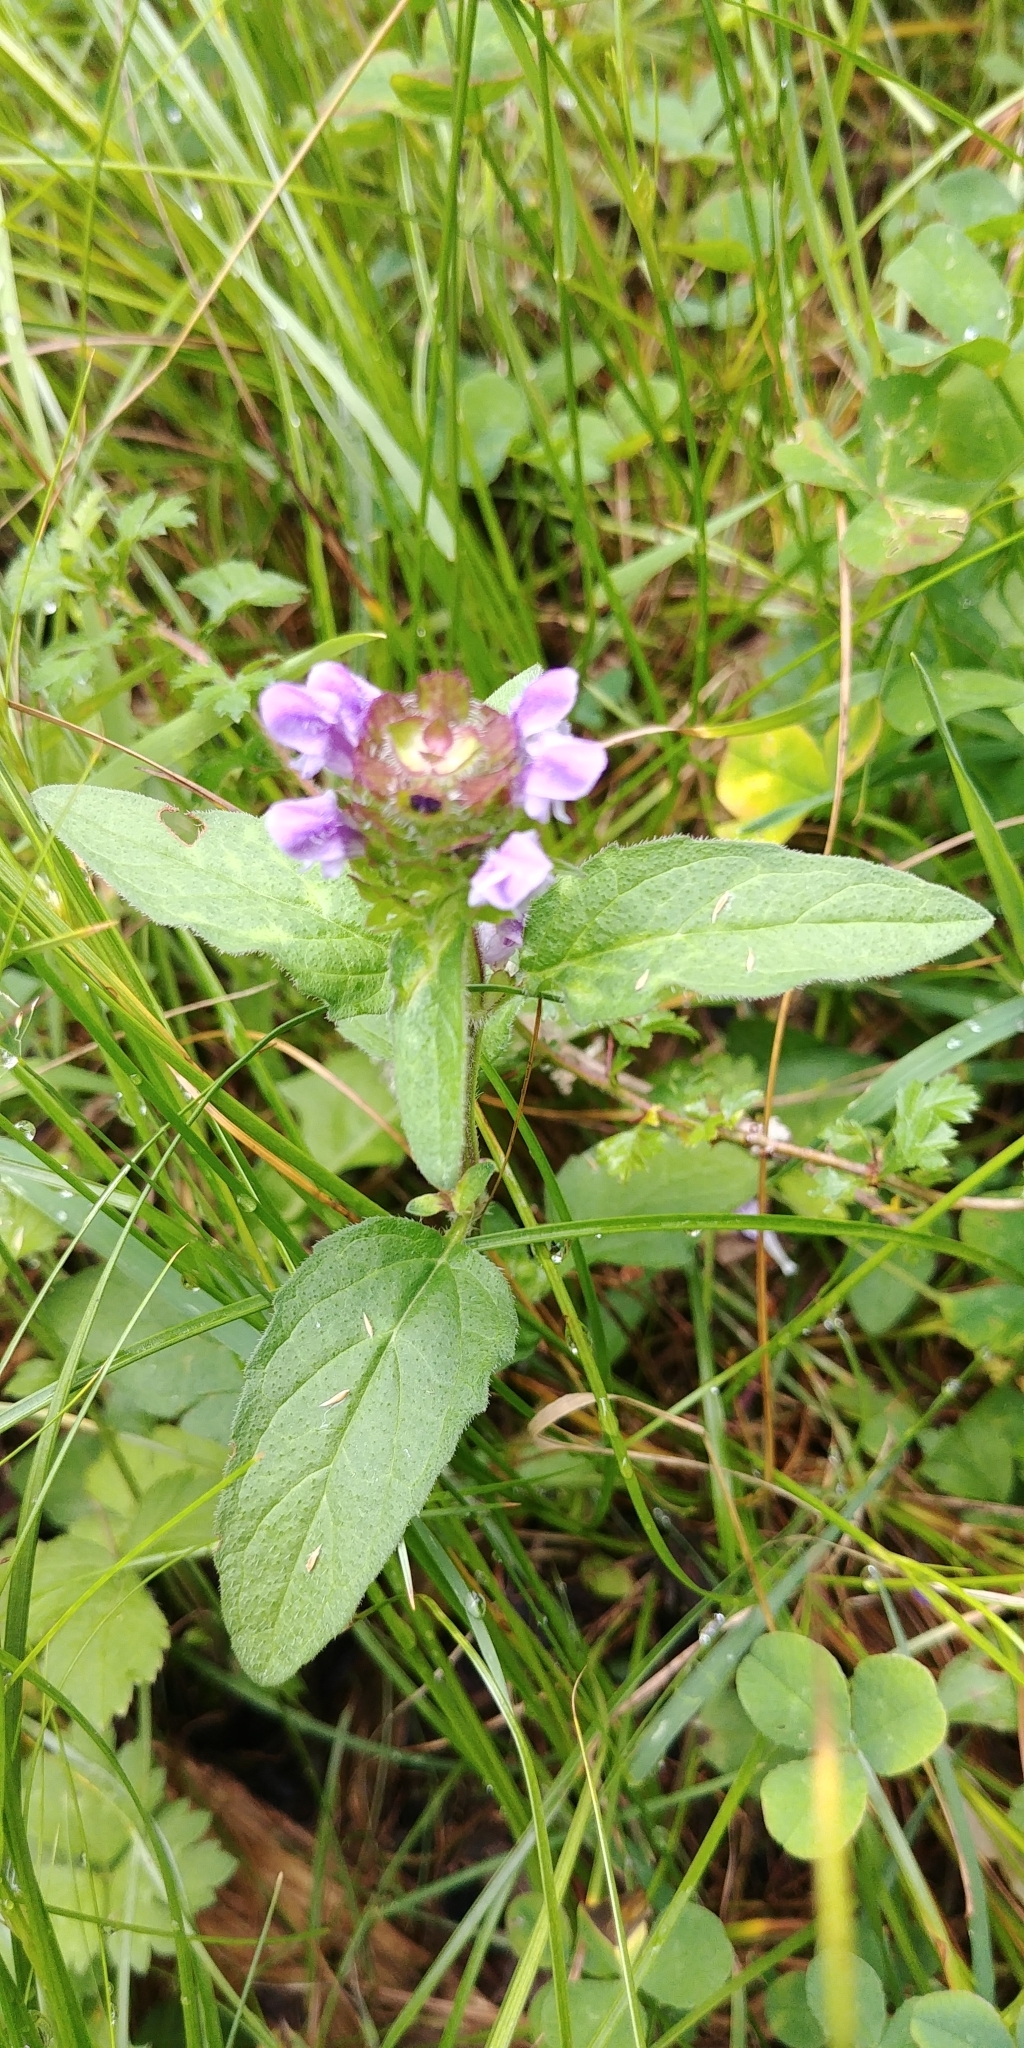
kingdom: Plantae
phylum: Tracheophyta
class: Magnoliopsida
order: Lamiales
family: Lamiaceae
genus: Prunella
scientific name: Prunella vulgaris
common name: Heal-all
